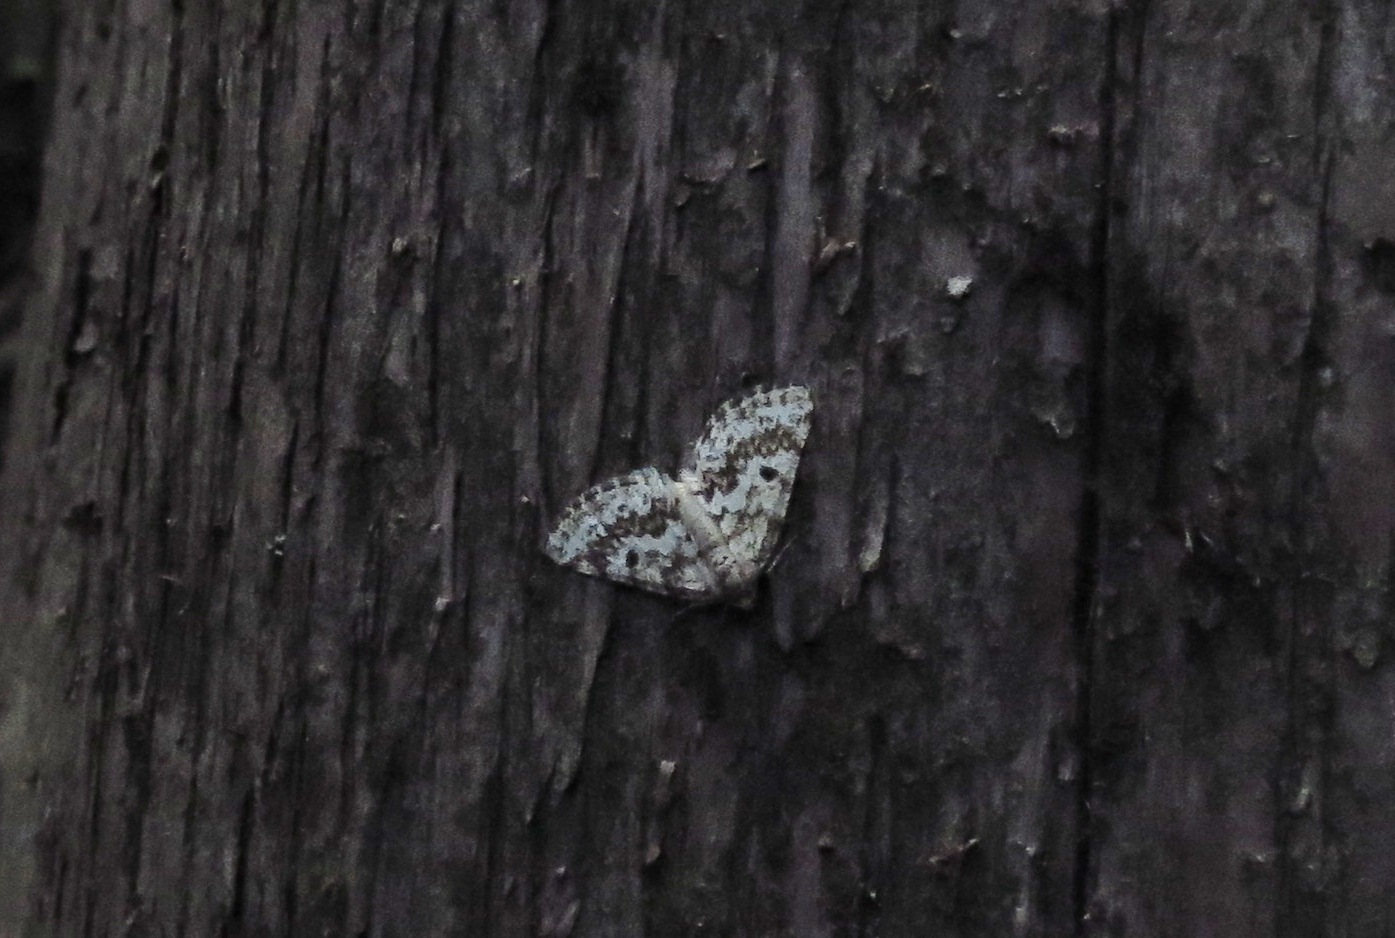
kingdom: Animalia
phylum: Arthropoda
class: Insecta
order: Lepidoptera
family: Geometridae
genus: Eufidonia
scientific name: Eufidonia notataria
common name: Powder moth
